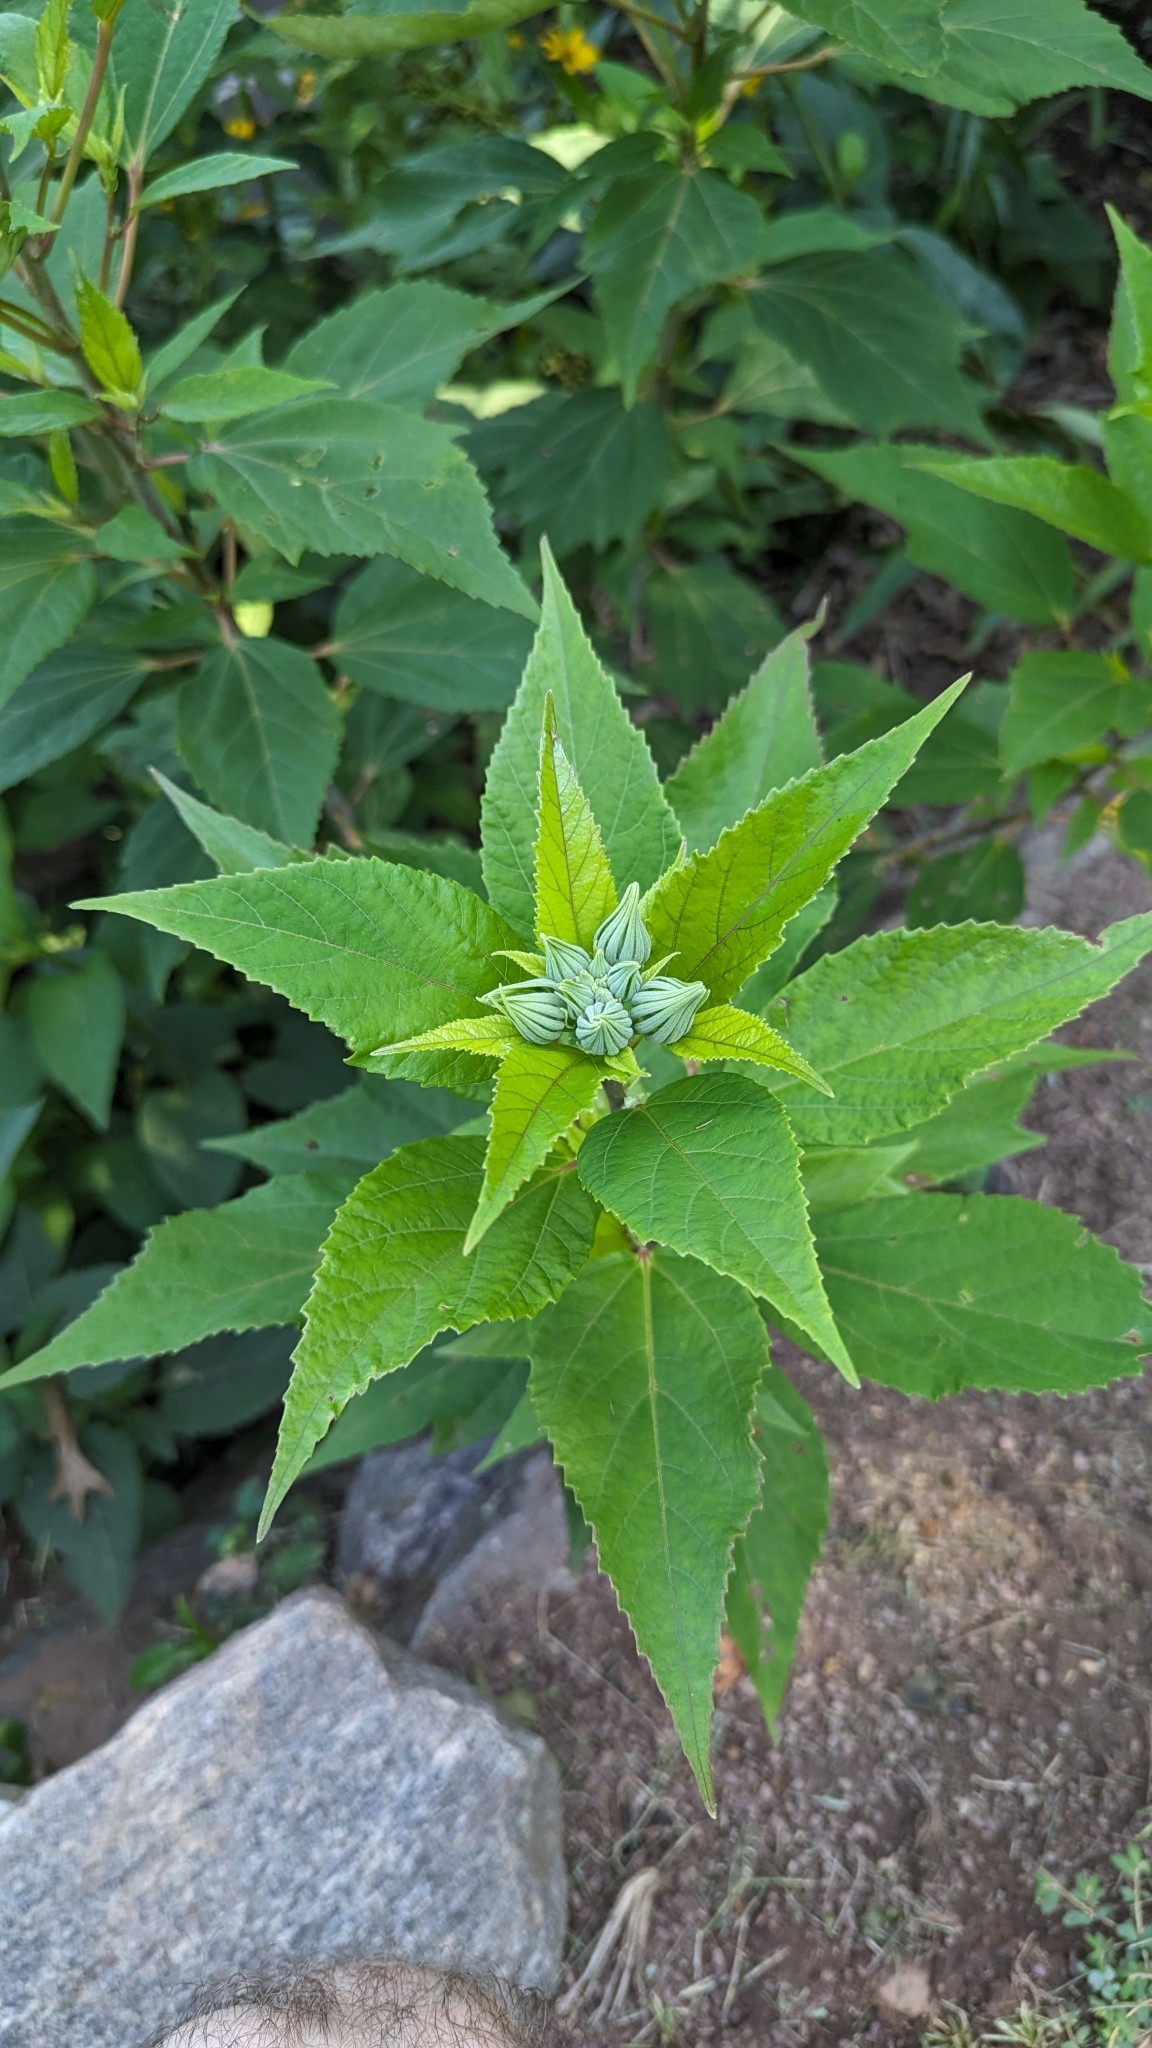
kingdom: Plantae
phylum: Tracheophyta
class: Magnoliopsida
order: Malvales
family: Malvaceae
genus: Hibiscus
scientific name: Hibiscus moscheutos
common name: Common rose-mallow
